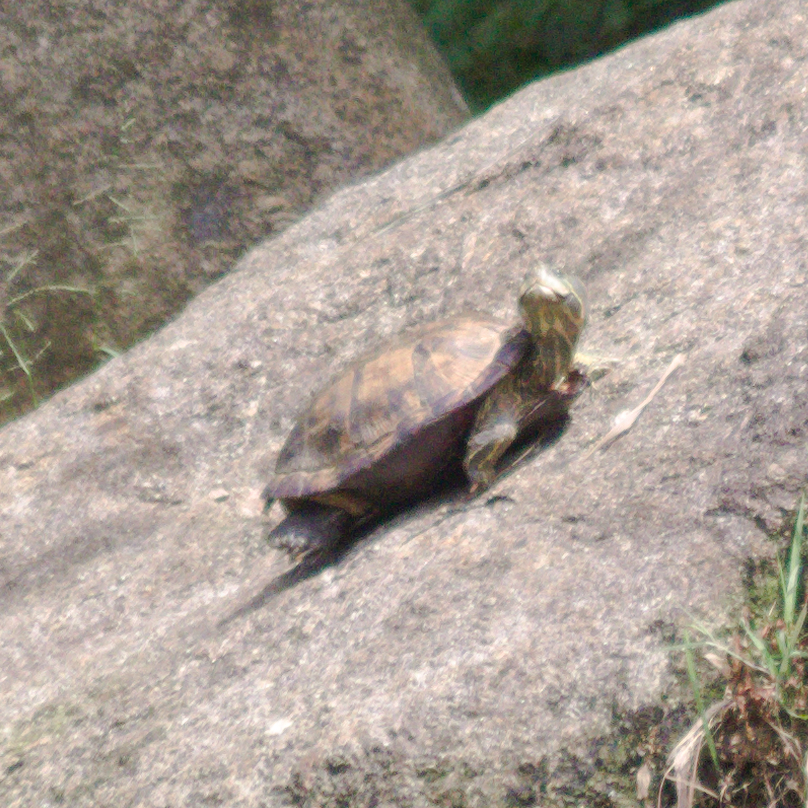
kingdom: Animalia
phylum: Chordata
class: Testudines
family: Geoemydidae
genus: Mauremys
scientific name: Mauremys reevesii
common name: Chinese pond turtle
